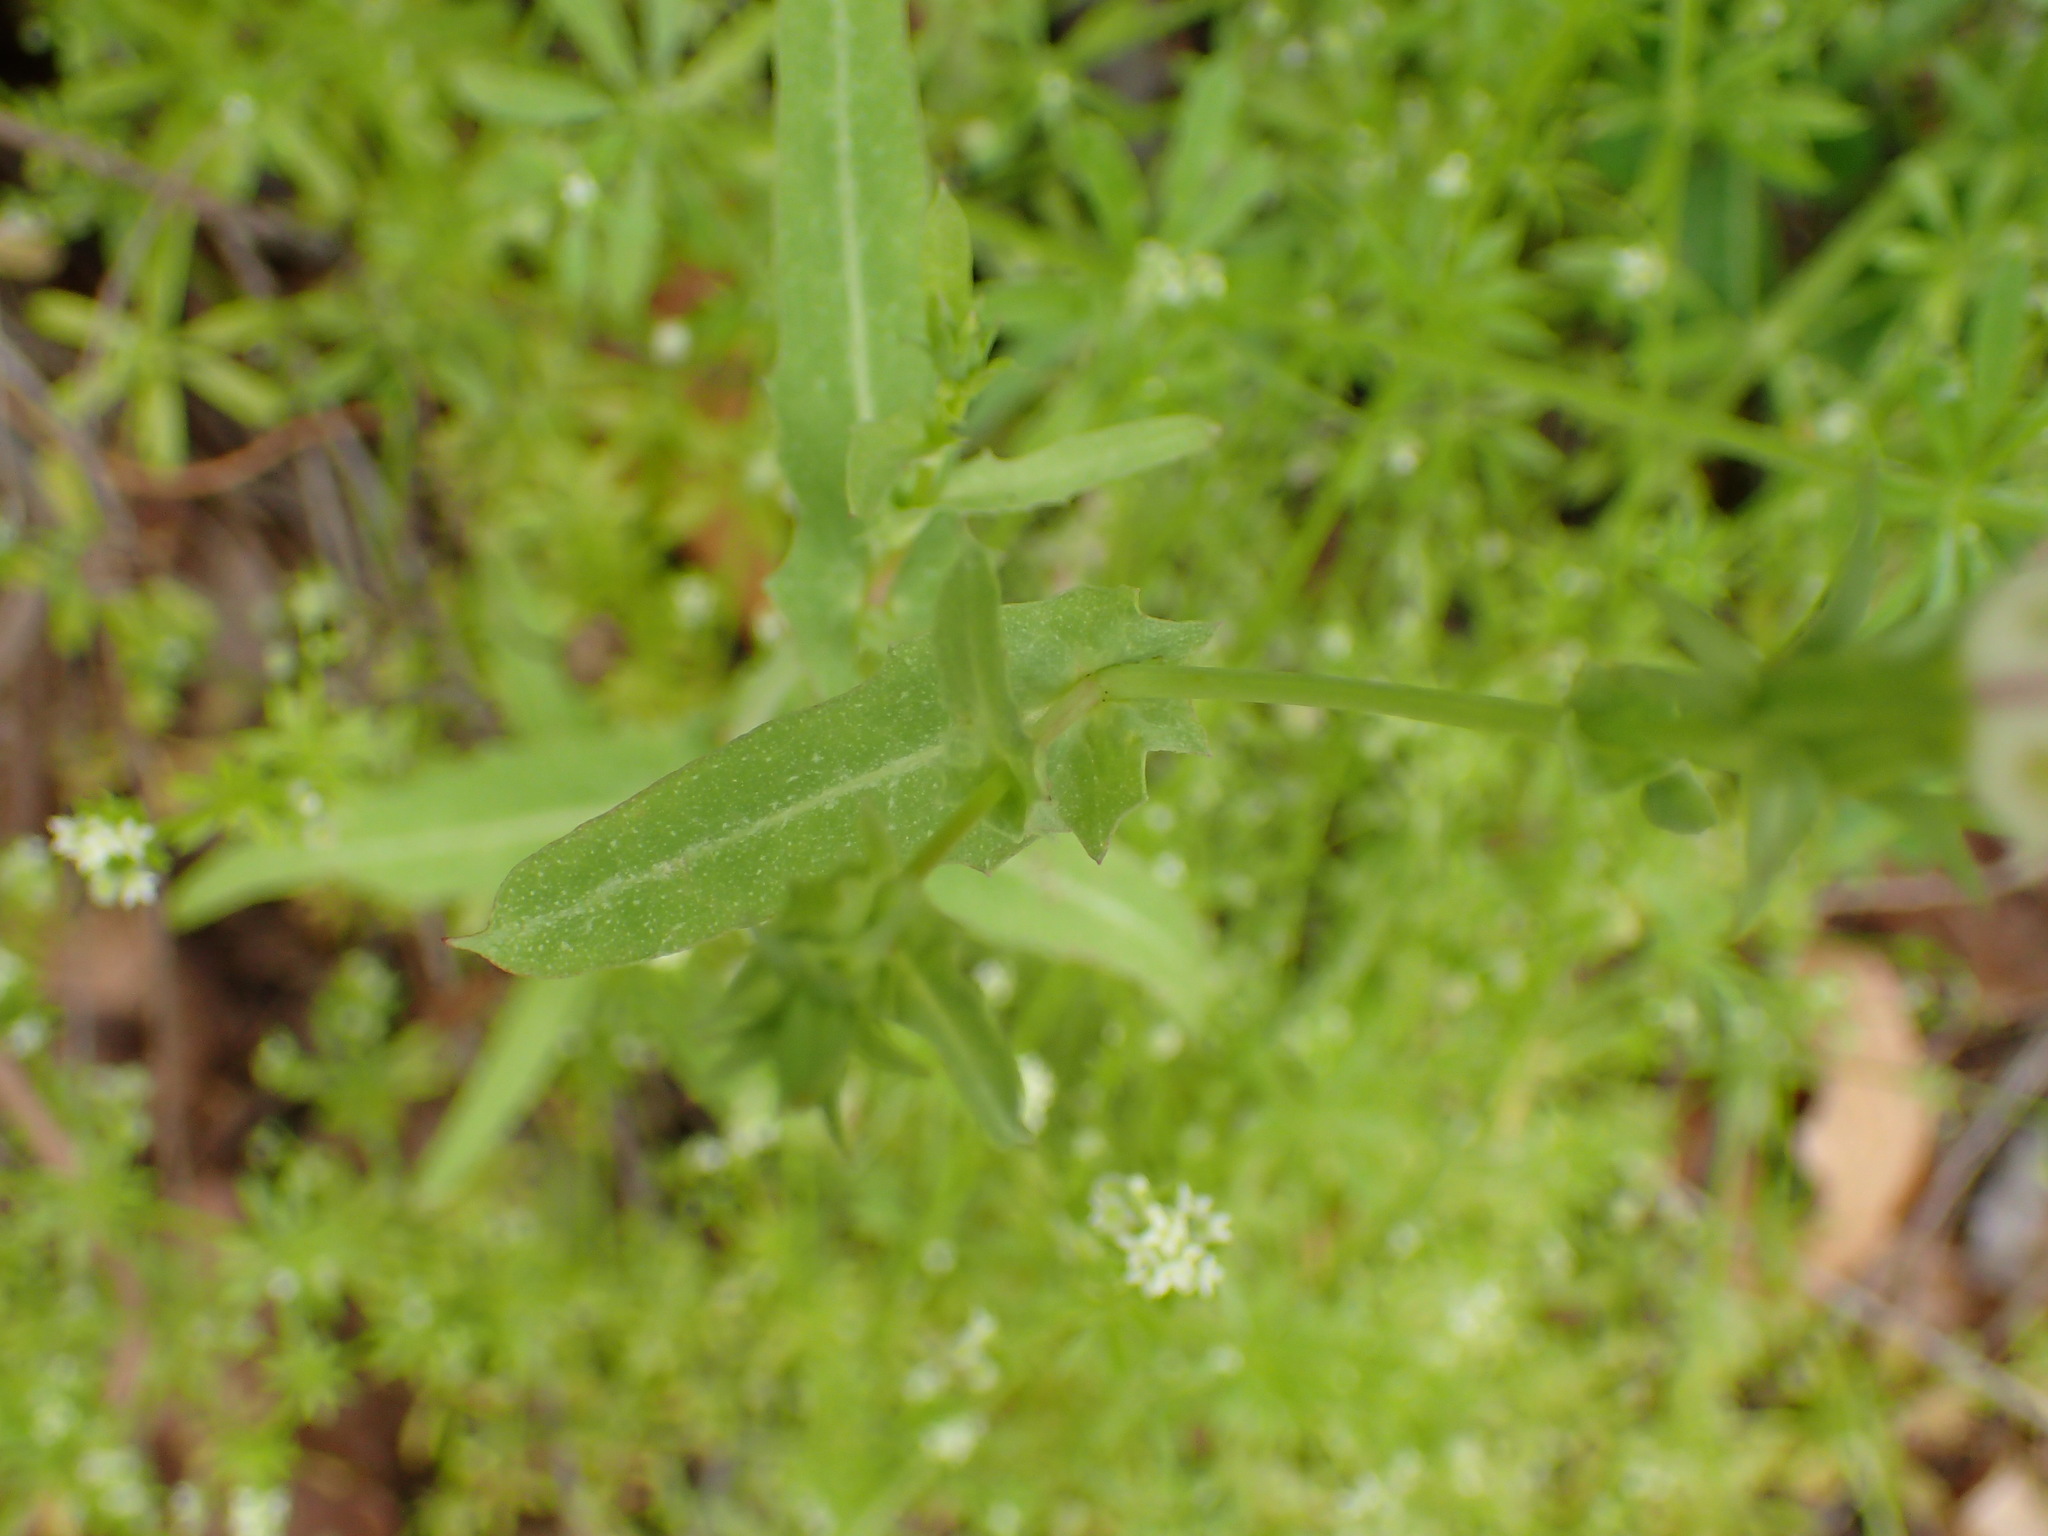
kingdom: Plantae
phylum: Tracheophyta
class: Magnoliopsida
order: Asterales
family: Asteraceae
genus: Rafinesquia
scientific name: Rafinesquia californica
